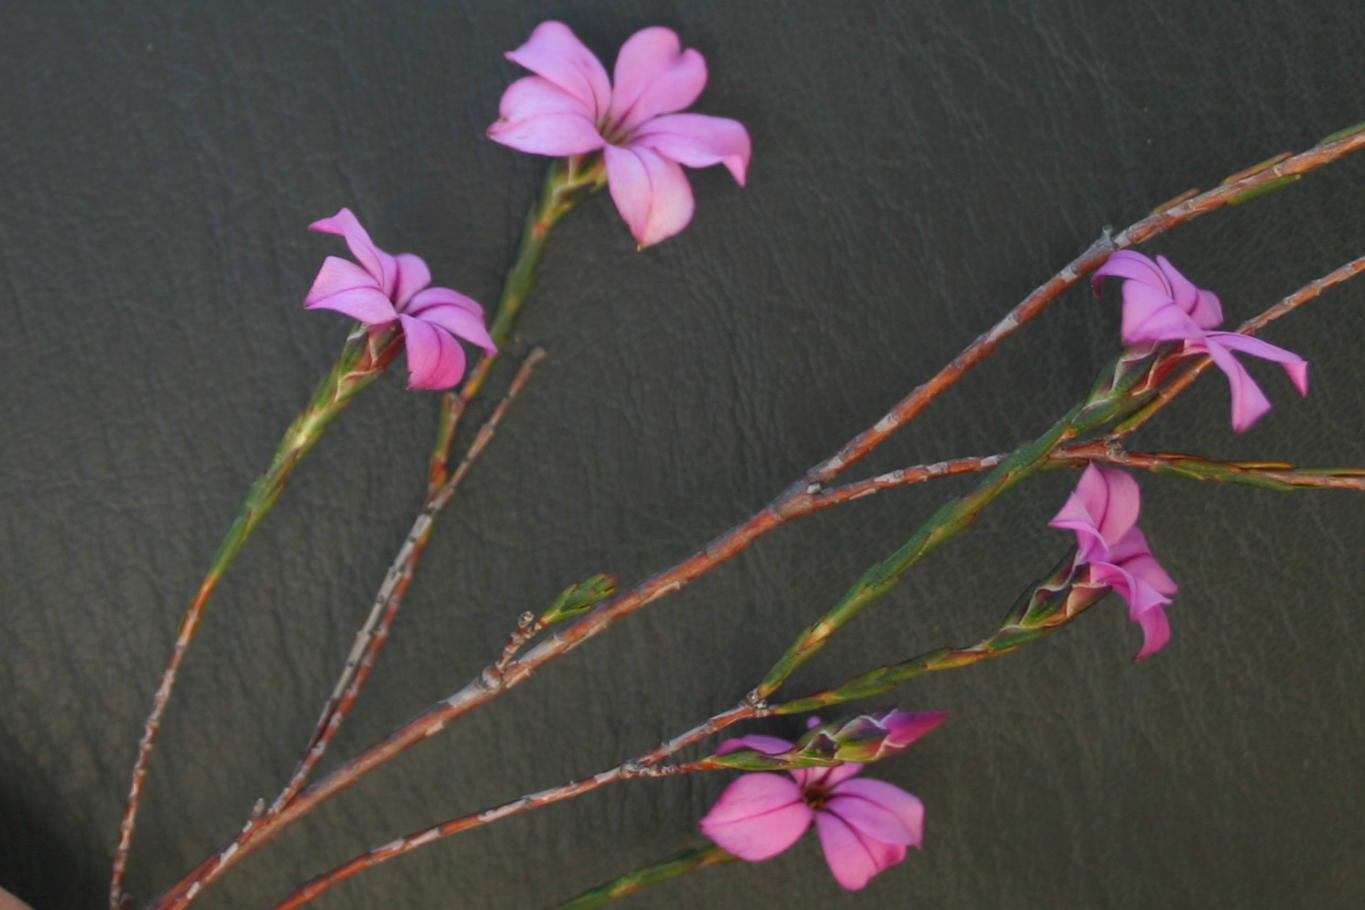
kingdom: Plantae
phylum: Tracheophyta
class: Magnoliopsida
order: Sapindales
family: Rutaceae
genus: Acmadenia
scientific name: Acmadenia nivenii
